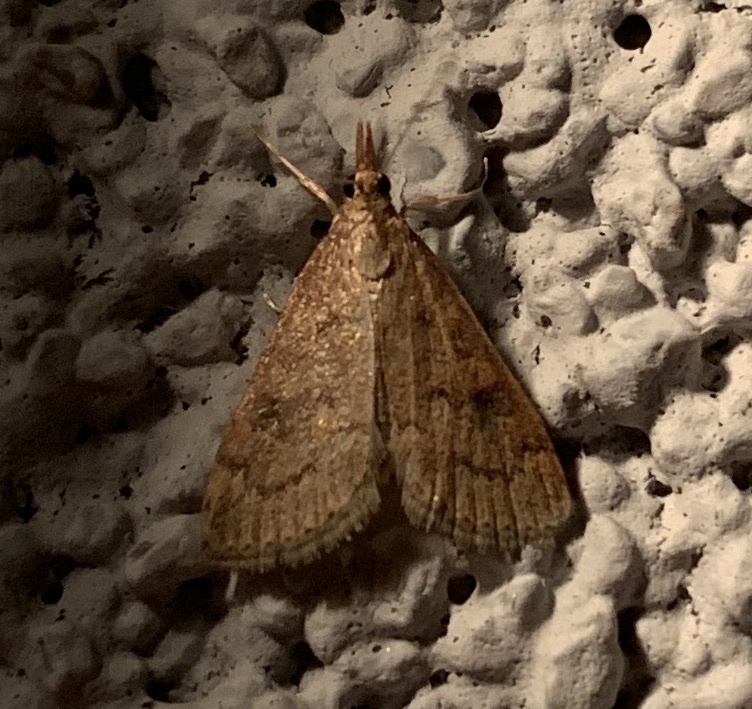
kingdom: Animalia
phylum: Arthropoda
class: Insecta
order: Lepidoptera
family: Crambidae
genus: Udea
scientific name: Udea rubigalis
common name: Celery leaftier moth
